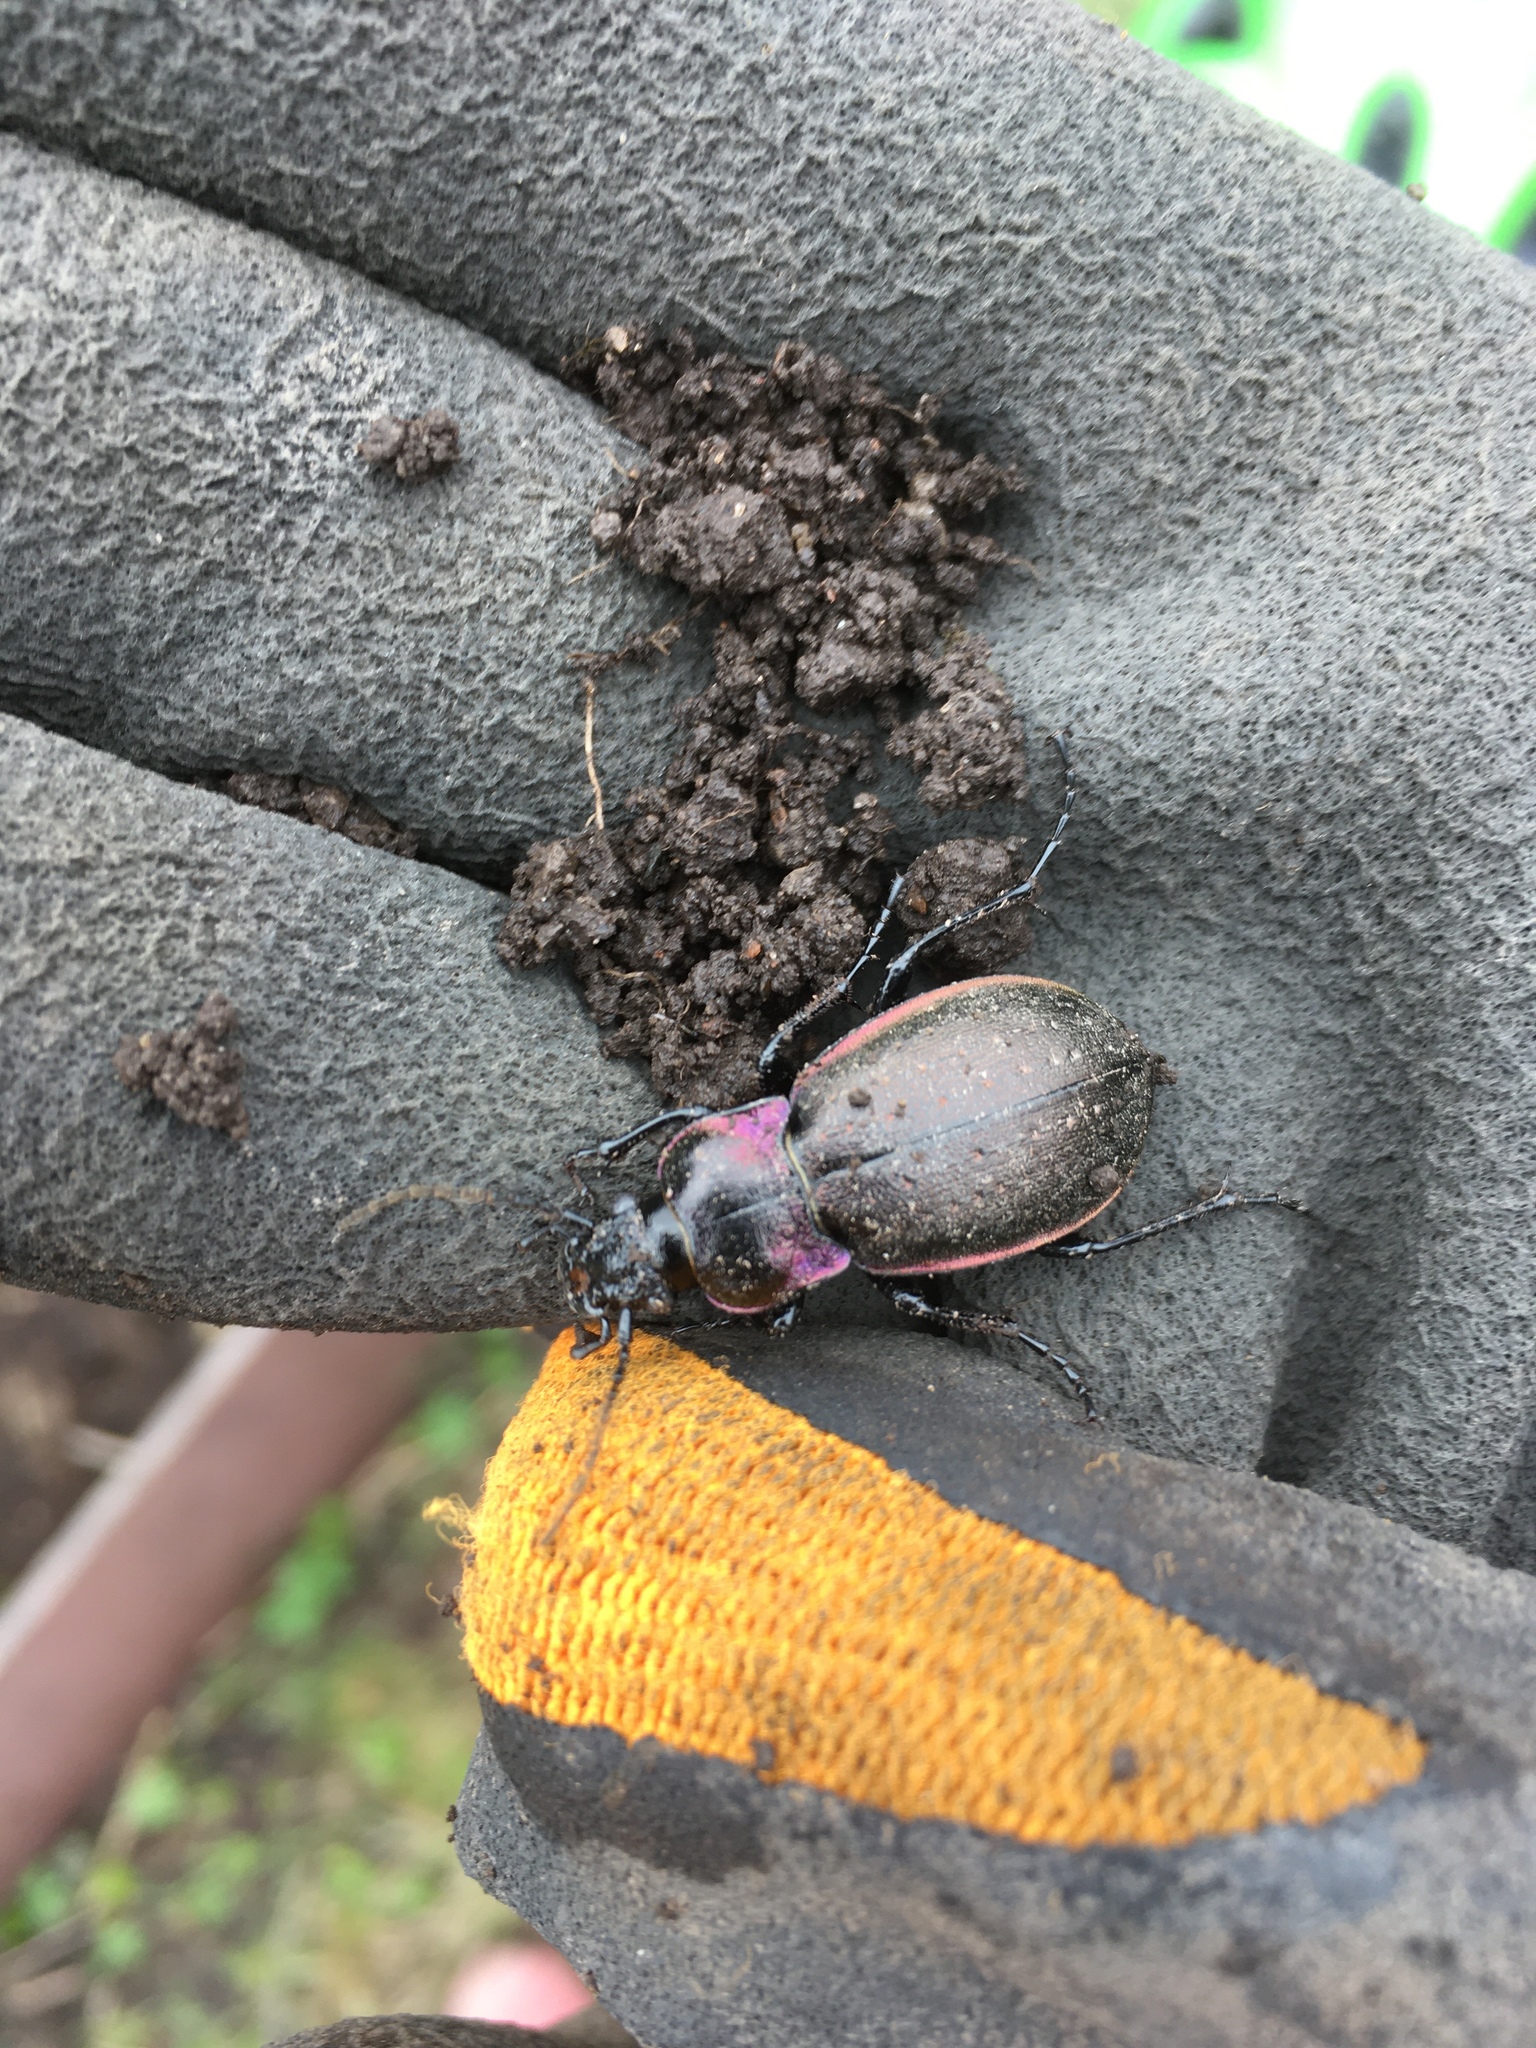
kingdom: Animalia
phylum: Arthropoda
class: Insecta
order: Coleoptera
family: Carabidae
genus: Carabus
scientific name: Carabus nemoralis
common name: European ground beetle
